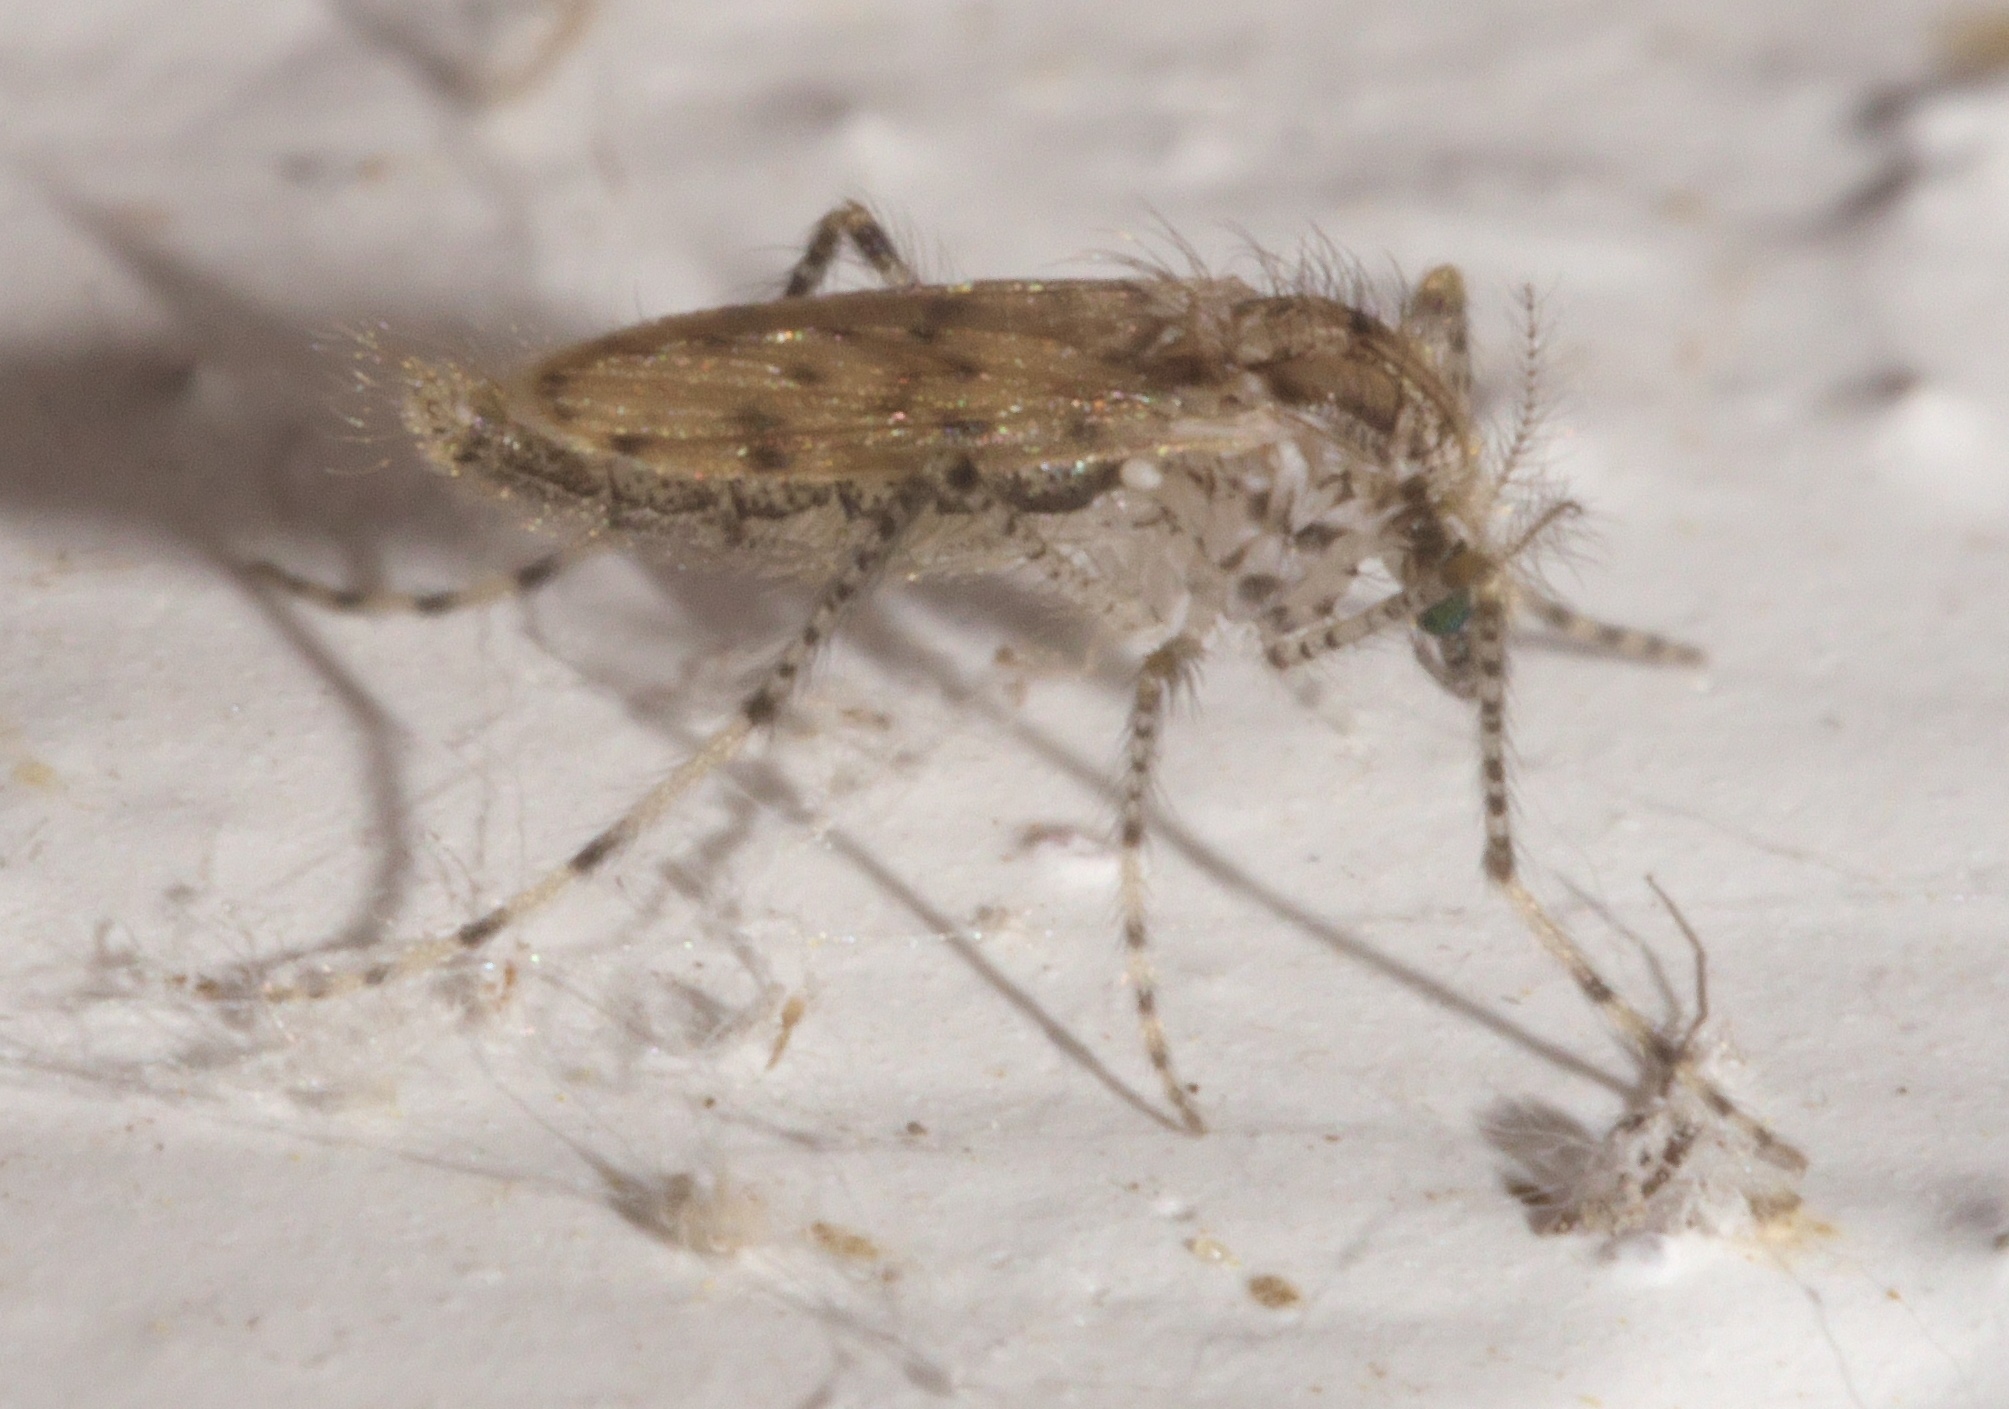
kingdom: Animalia
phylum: Arthropoda
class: Insecta
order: Diptera
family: Chaoboridae
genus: Chaoborus
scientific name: Chaoborus punctipennis
